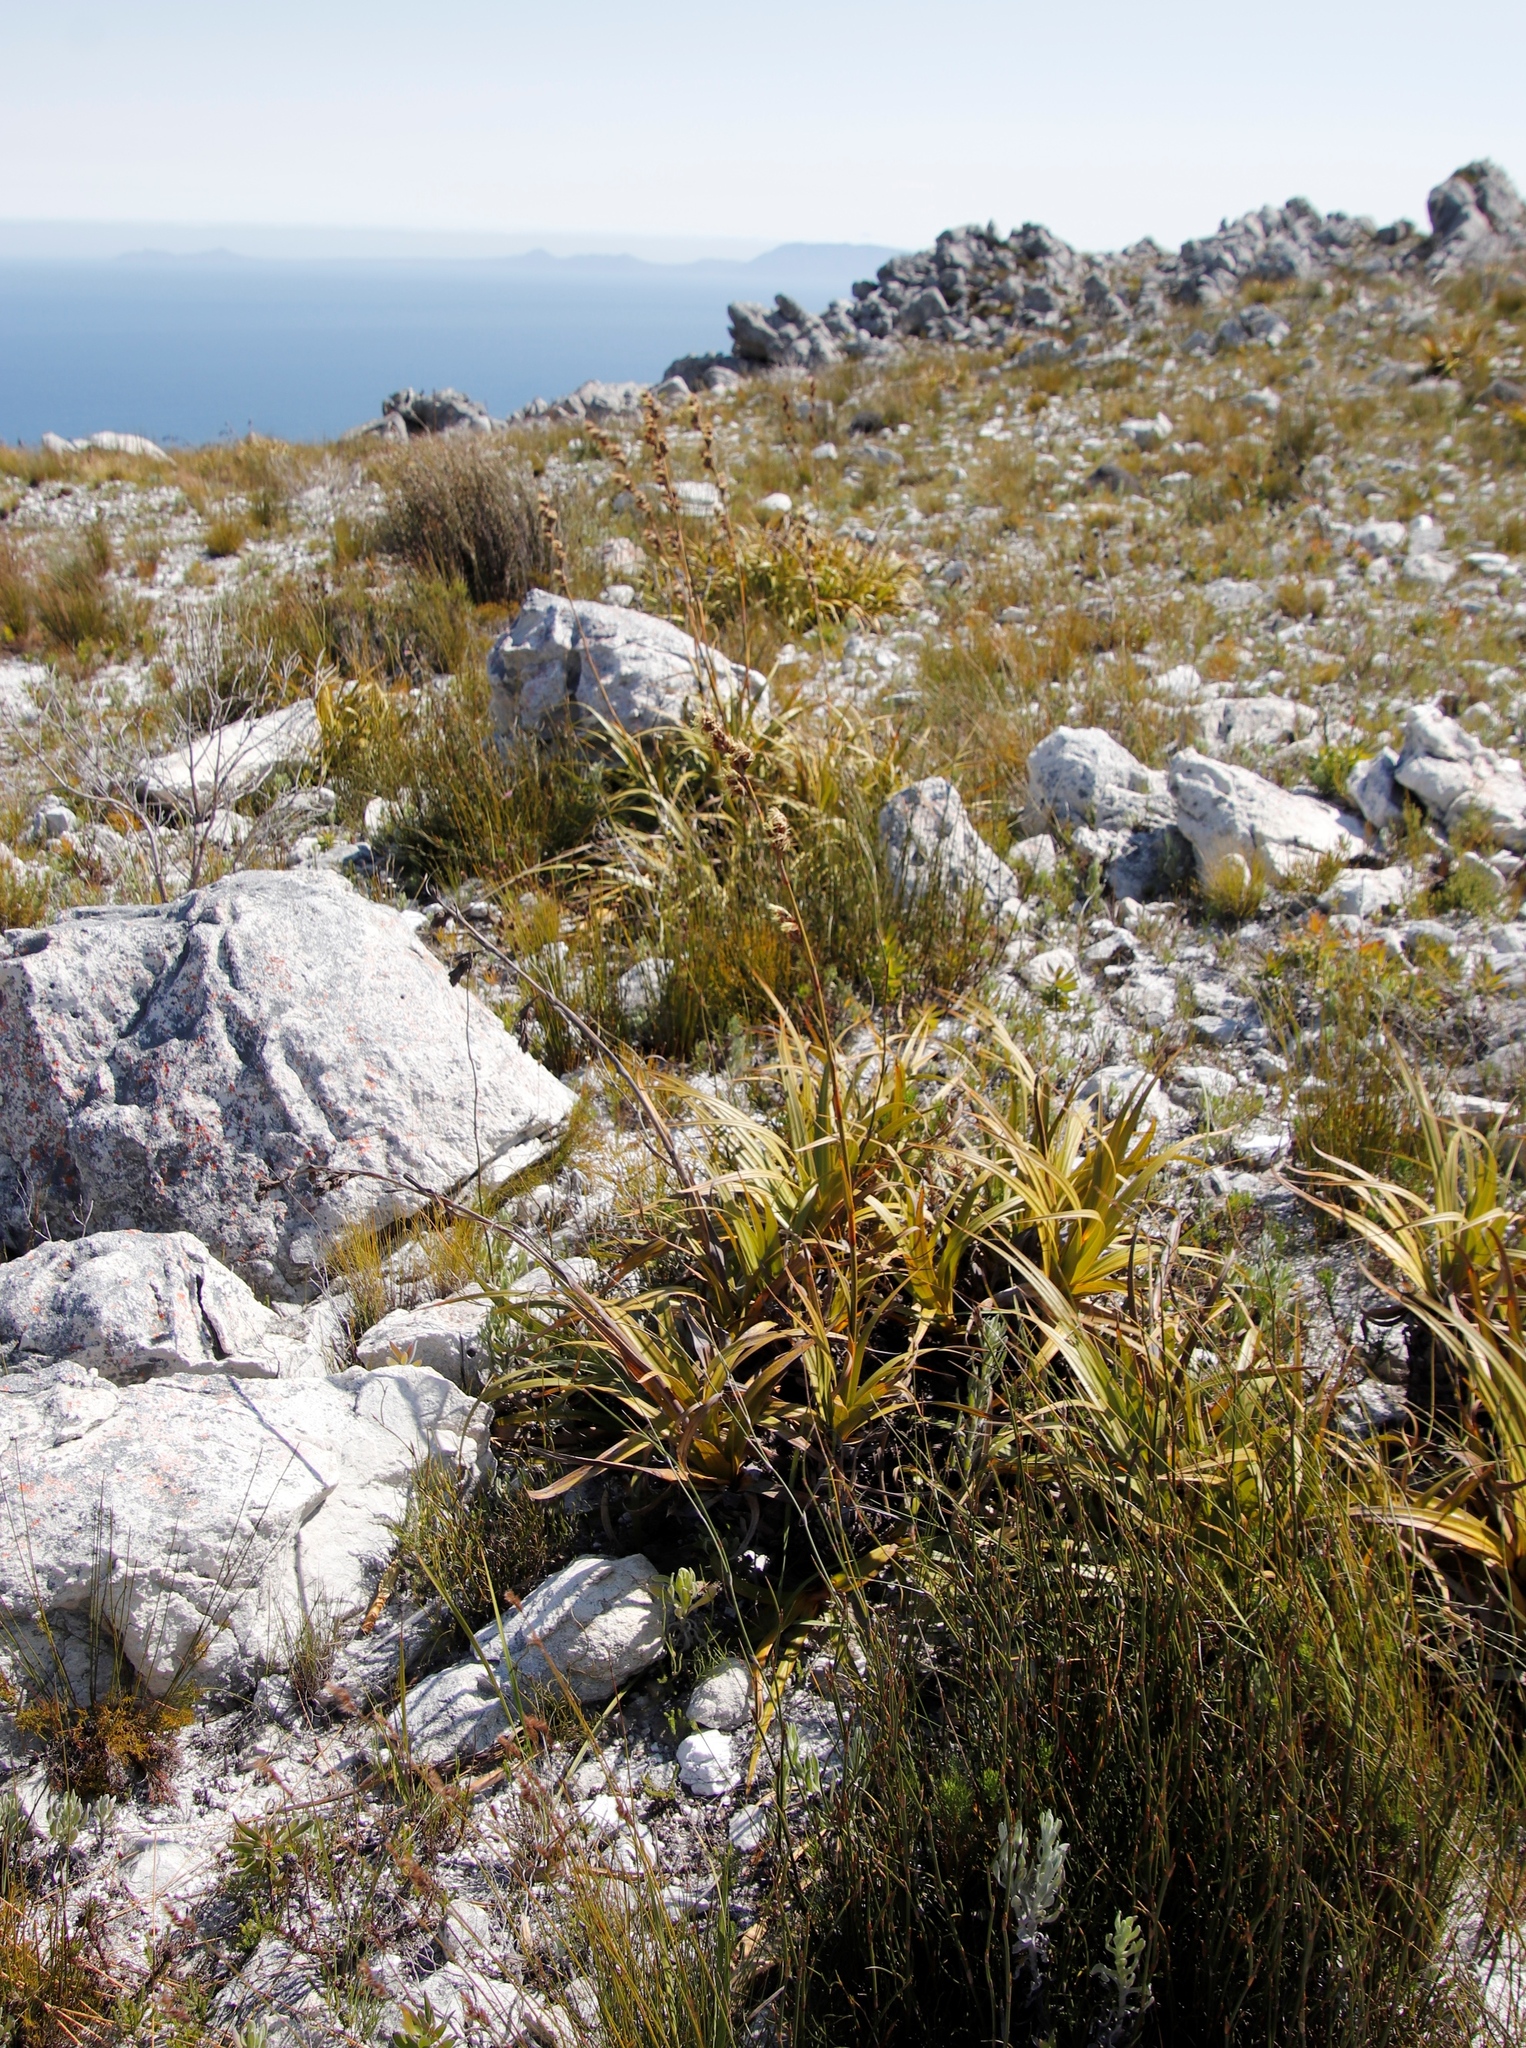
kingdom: Plantae
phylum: Tracheophyta
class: Liliopsida
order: Poales
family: Cyperaceae
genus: Tetraria
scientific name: Tetraria thermalis
